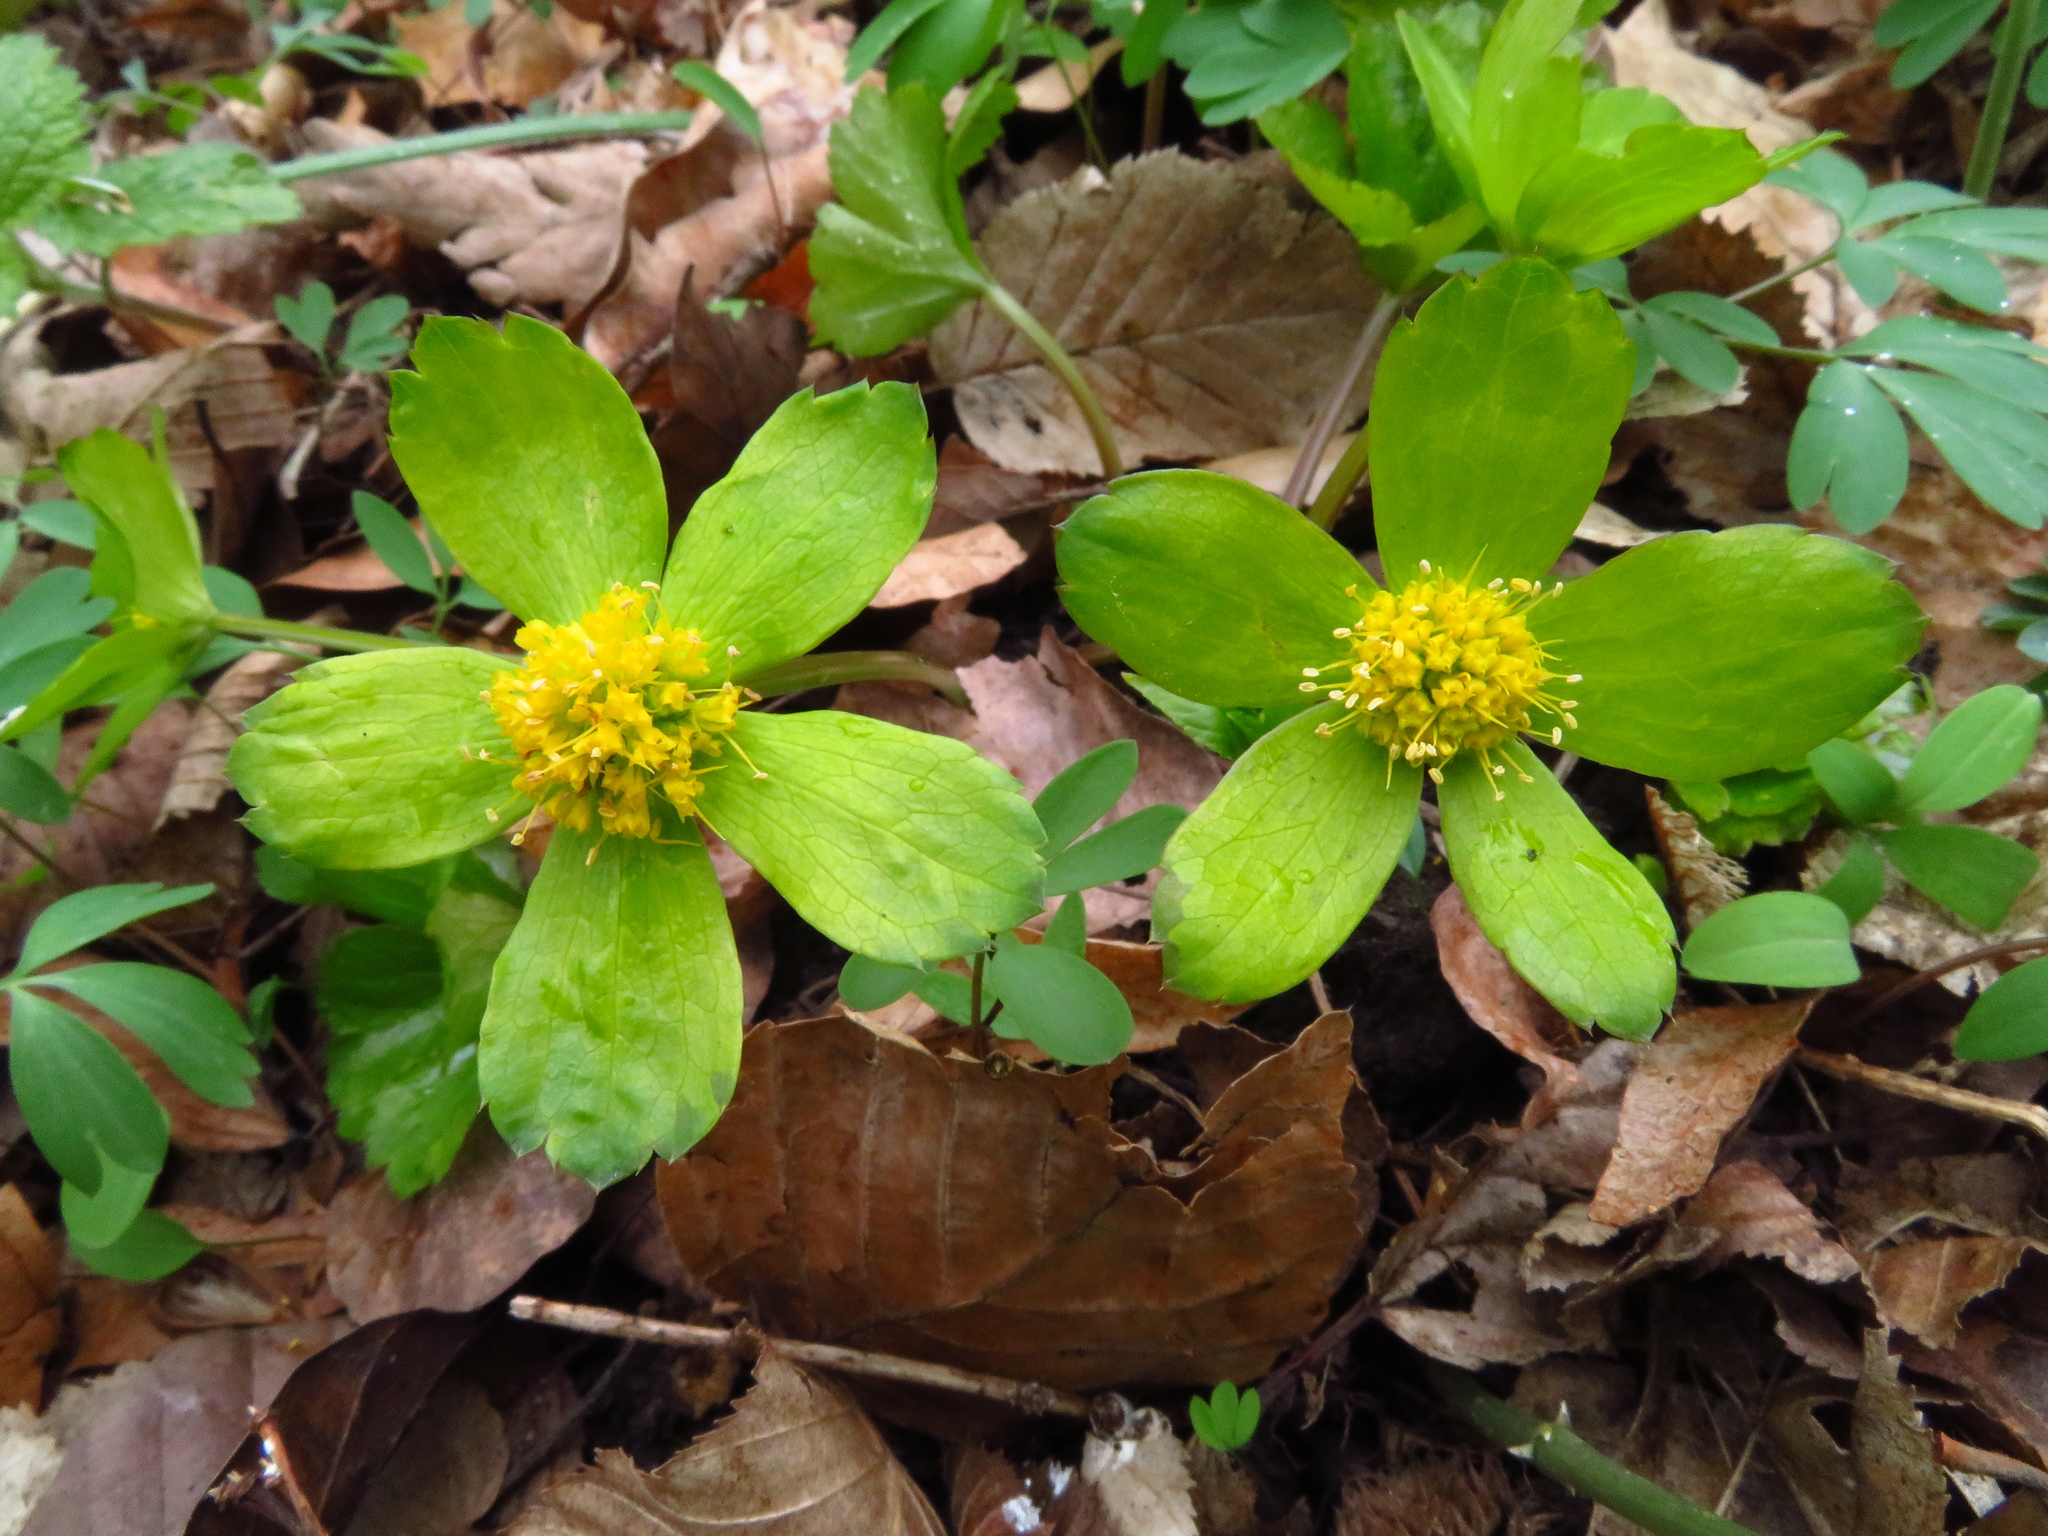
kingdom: Plantae
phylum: Tracheophyta
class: Magnoliopsida
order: Apiales
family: Apiaceae
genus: Sanicula
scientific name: Sanicula epipactis
